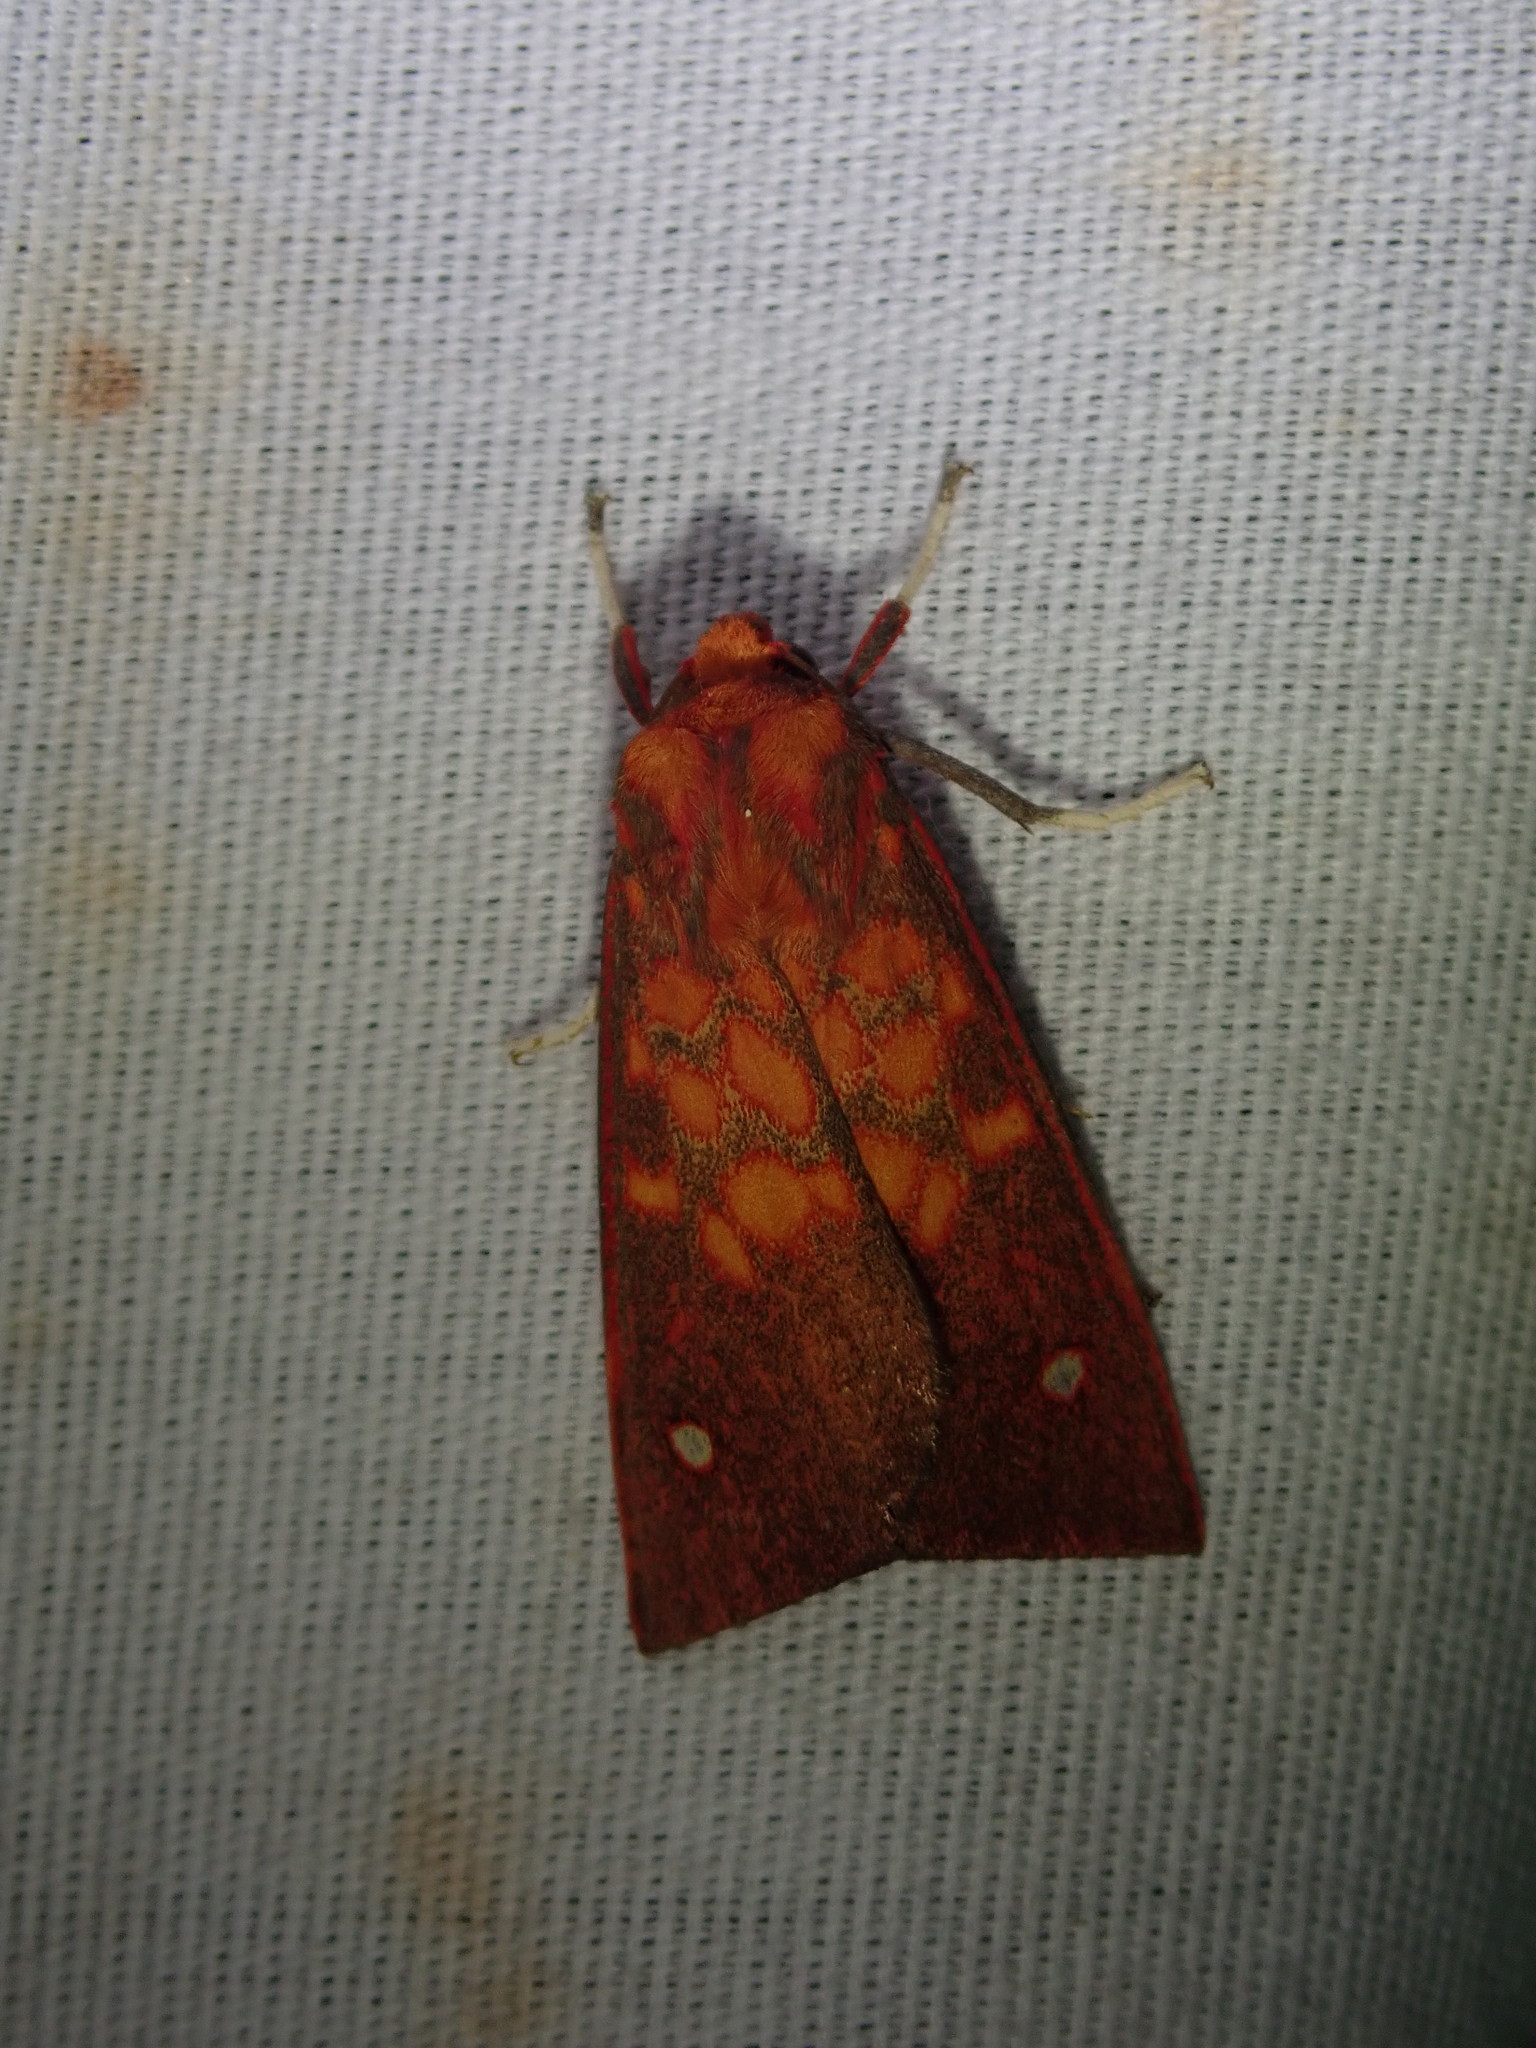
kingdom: Animalia
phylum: Arthropoda
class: Insecta
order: Lepidoptera
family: Erebidae
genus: Melese
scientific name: Melese intensa
